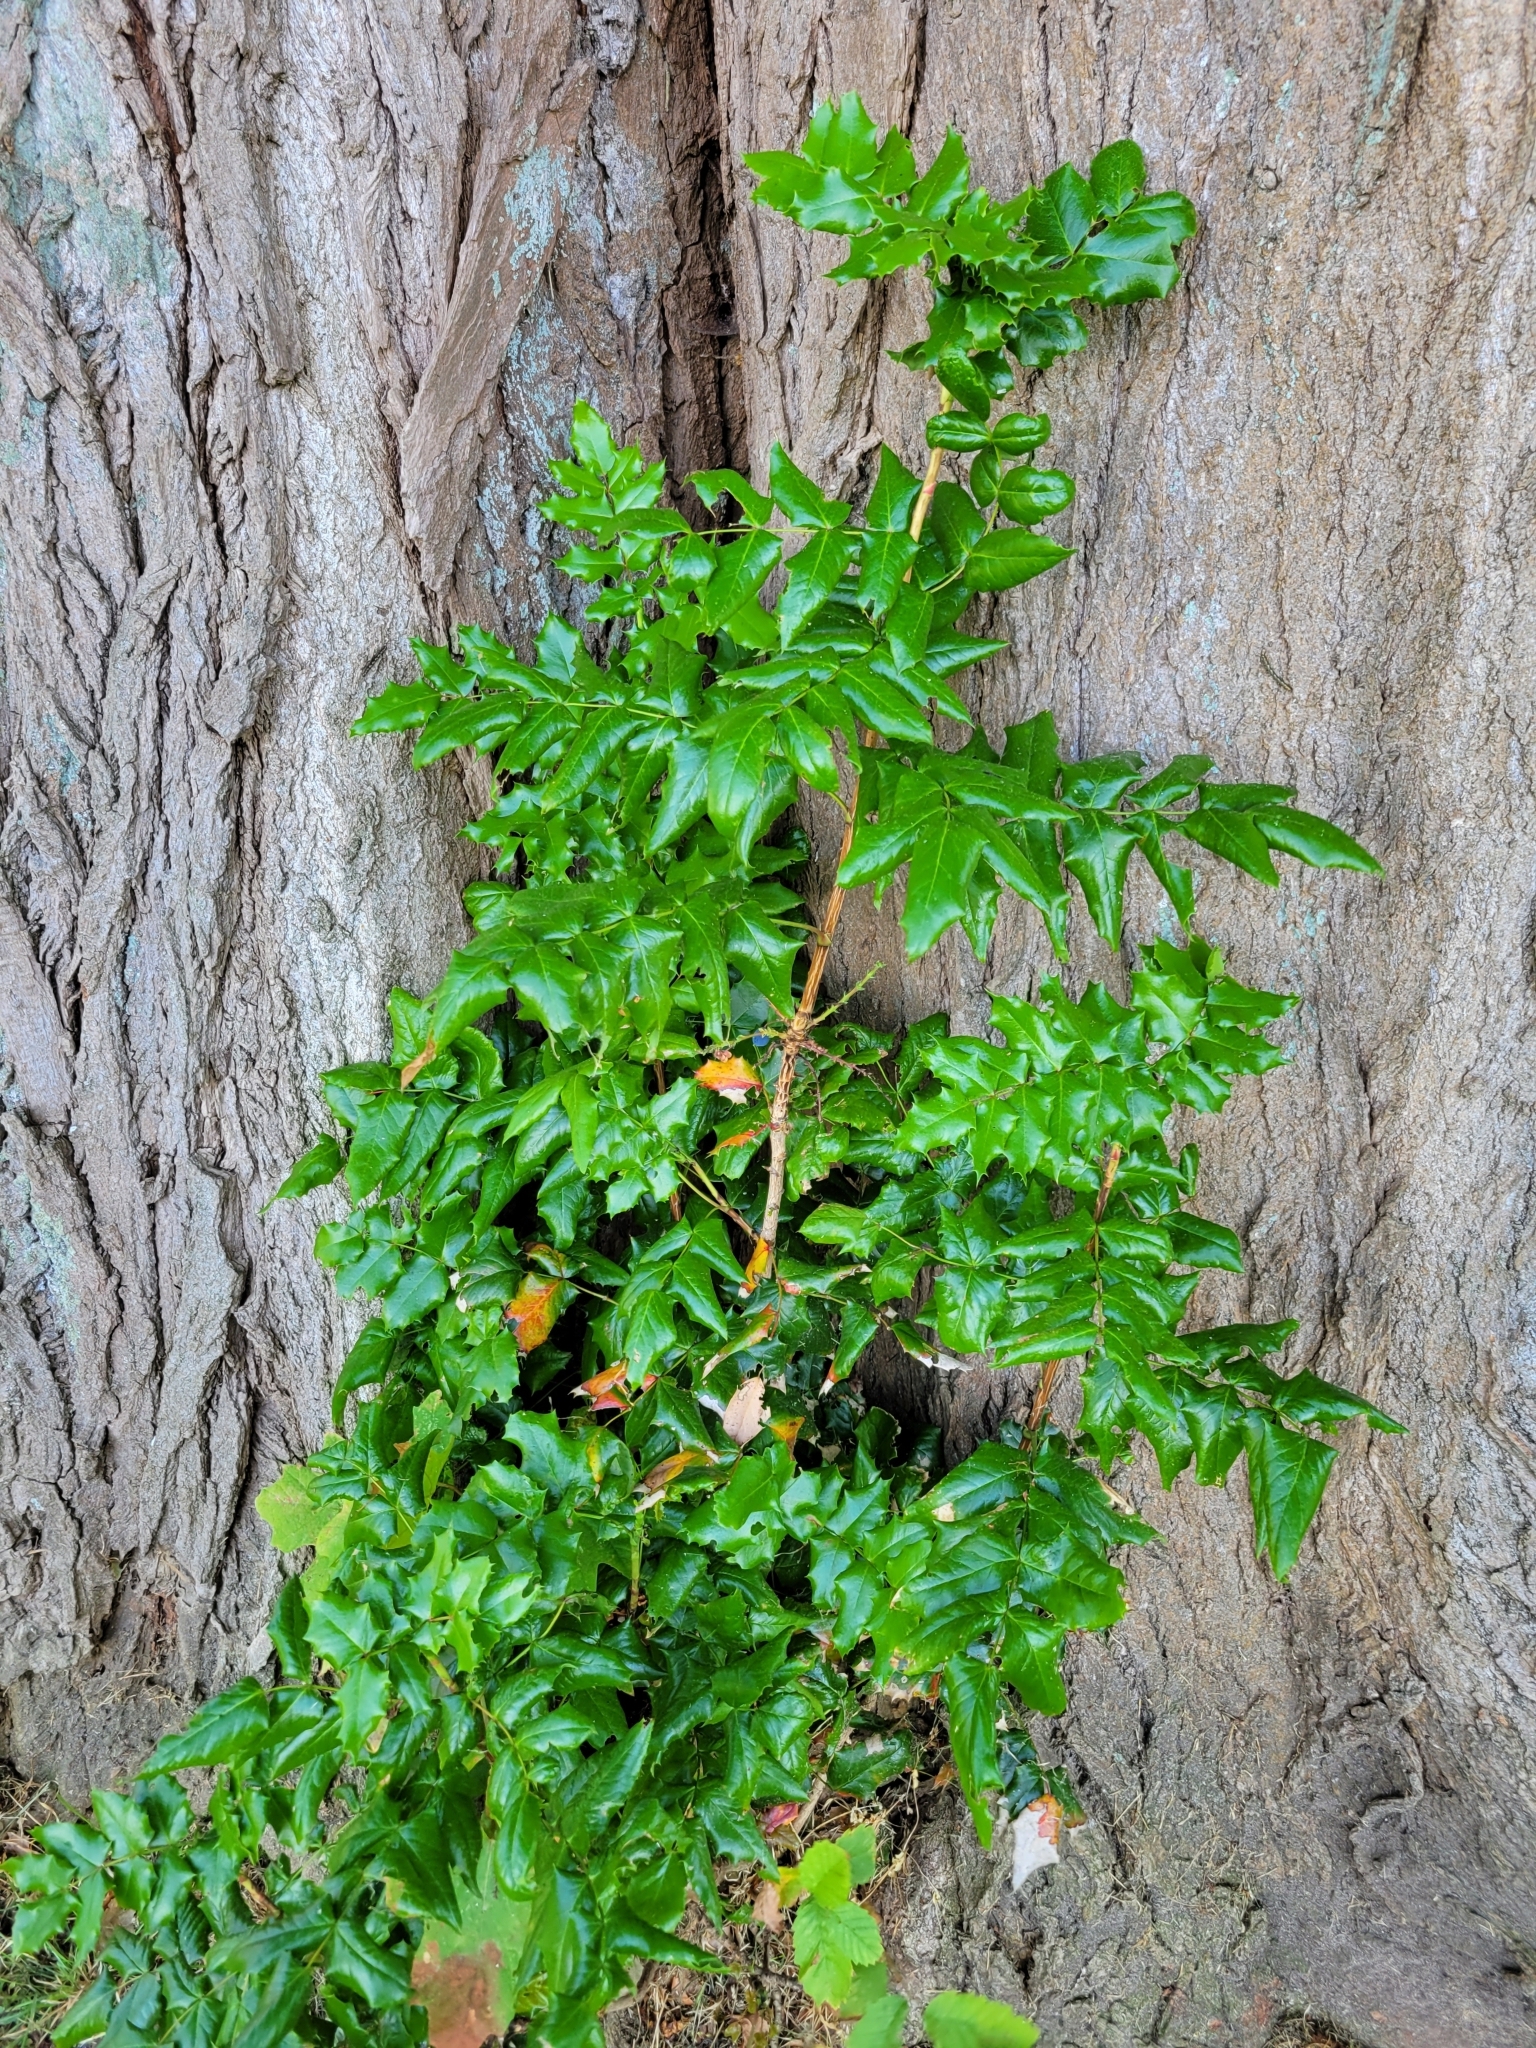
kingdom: Plantae
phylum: Tracheophyta
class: Magnoliopsida
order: Ranunculales
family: Berberidaceae
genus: Mahonia
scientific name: Mahonia aquifolium
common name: Oregon-grape
